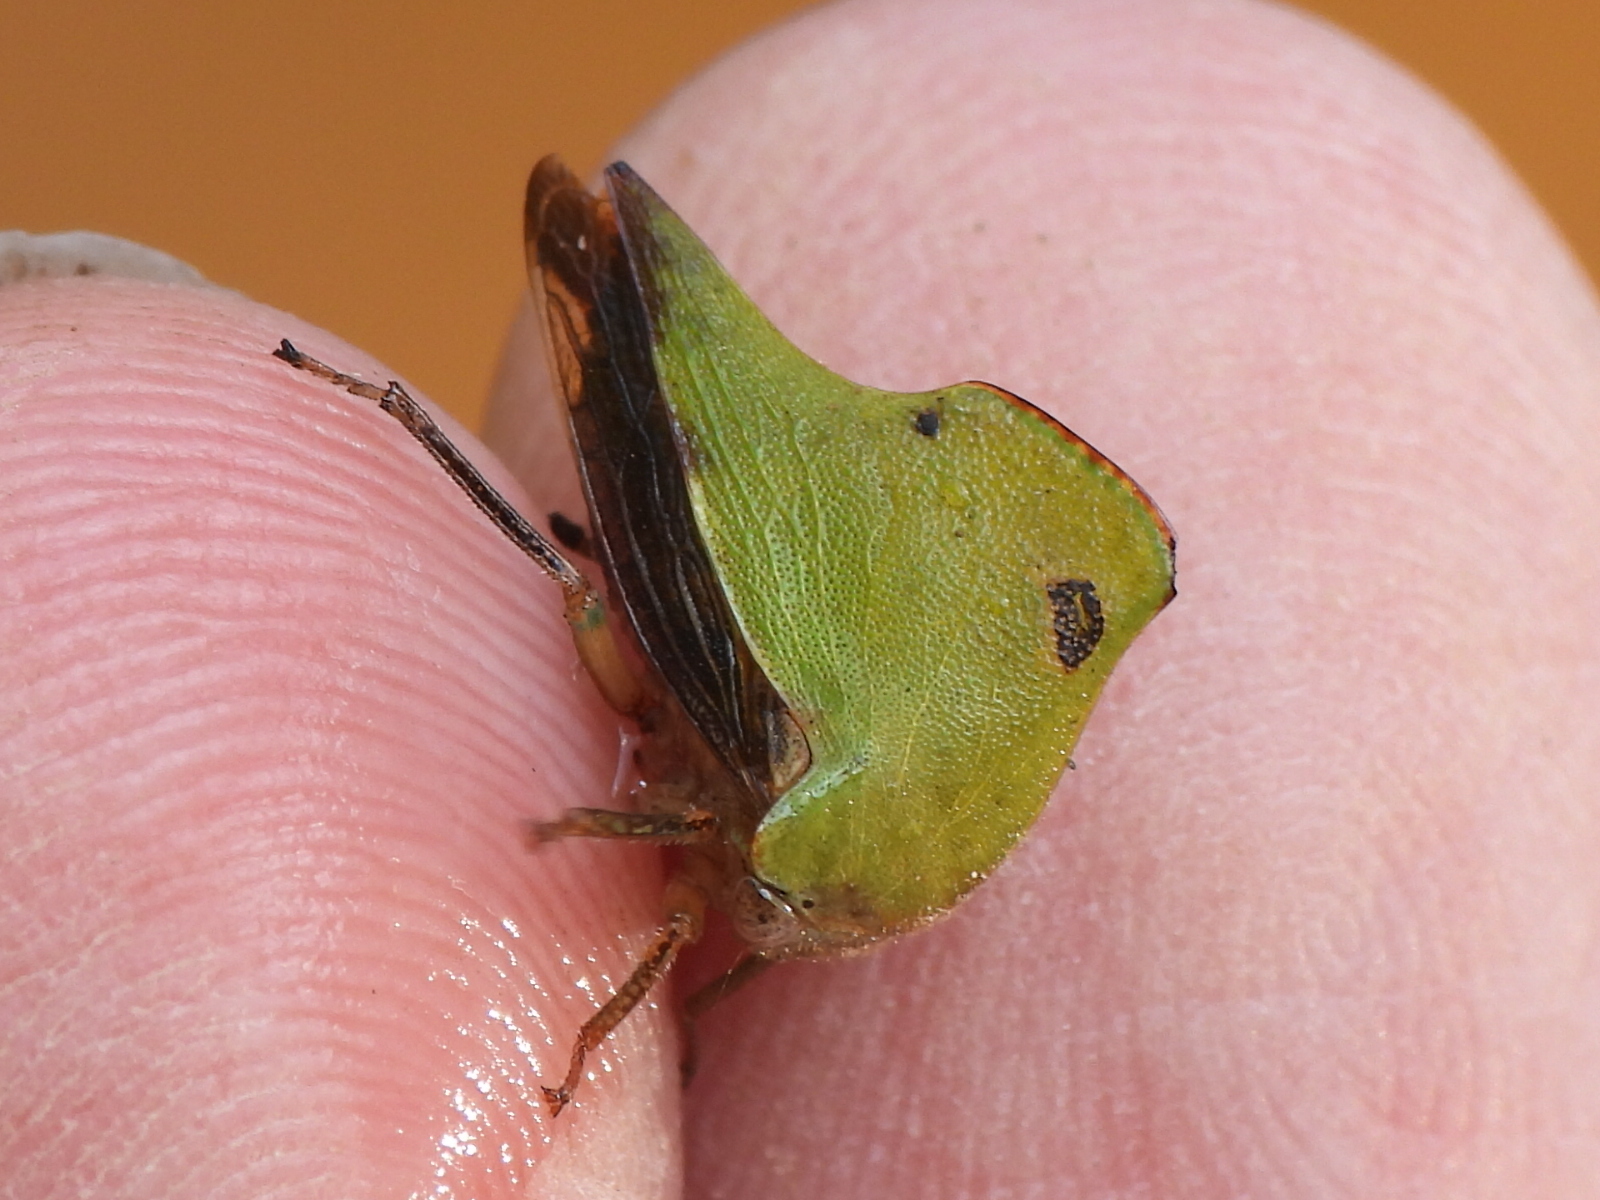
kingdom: Animalia
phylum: Arthropoda
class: Insecta
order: Hemiptera
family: Membracidae
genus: Helonica
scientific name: Helonica excelsa
